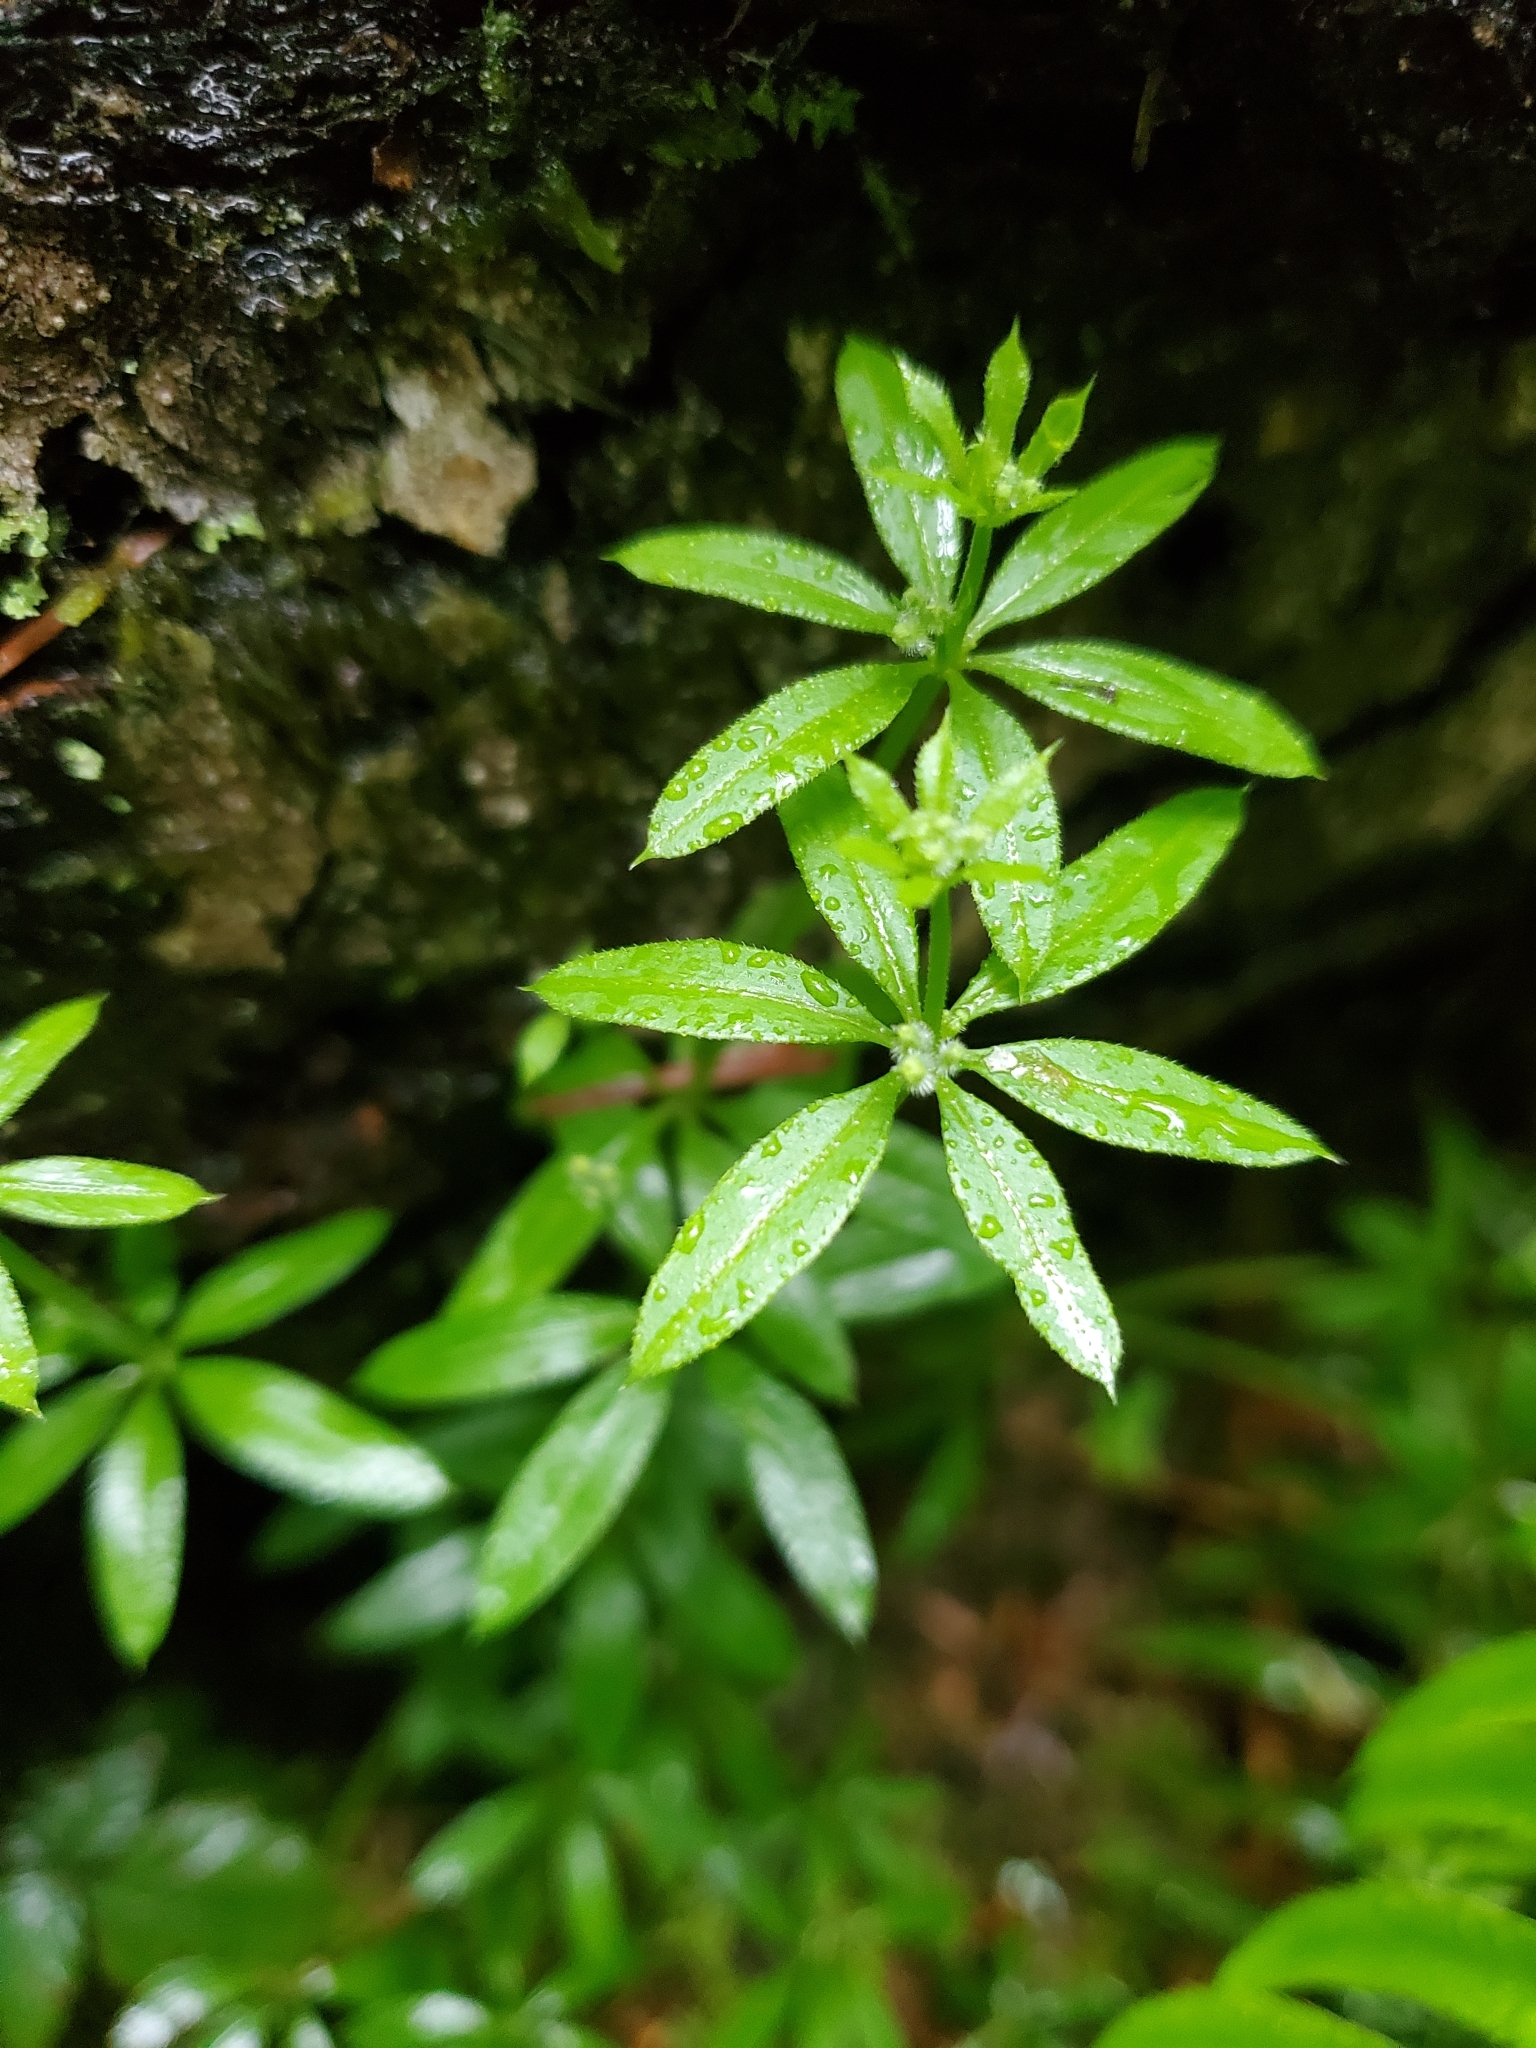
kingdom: Plantae
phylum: Tracheophyta
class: Magnoliopsida
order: Gentianales
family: Rubiaceae
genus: Galium
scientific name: Galium triflorum
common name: Fragrant bedstraw
